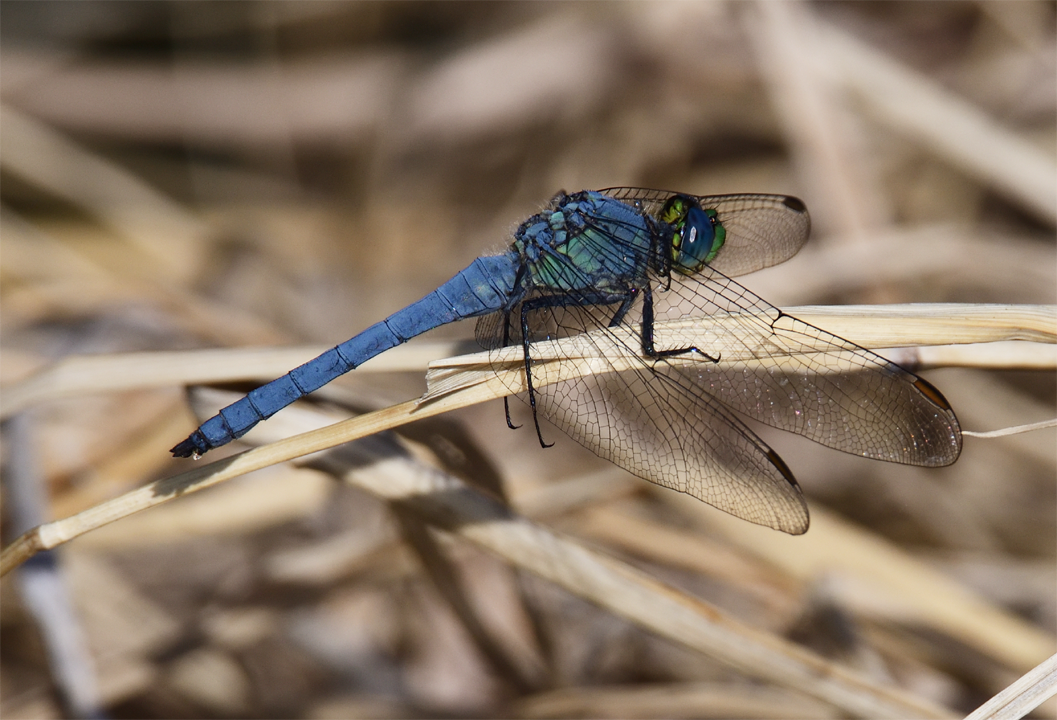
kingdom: Animalia
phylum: Arthropoda
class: Insecta
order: Odonata
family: Libellulidae
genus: Erythemis
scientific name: Erythemis collocata
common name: Western pondhawk
